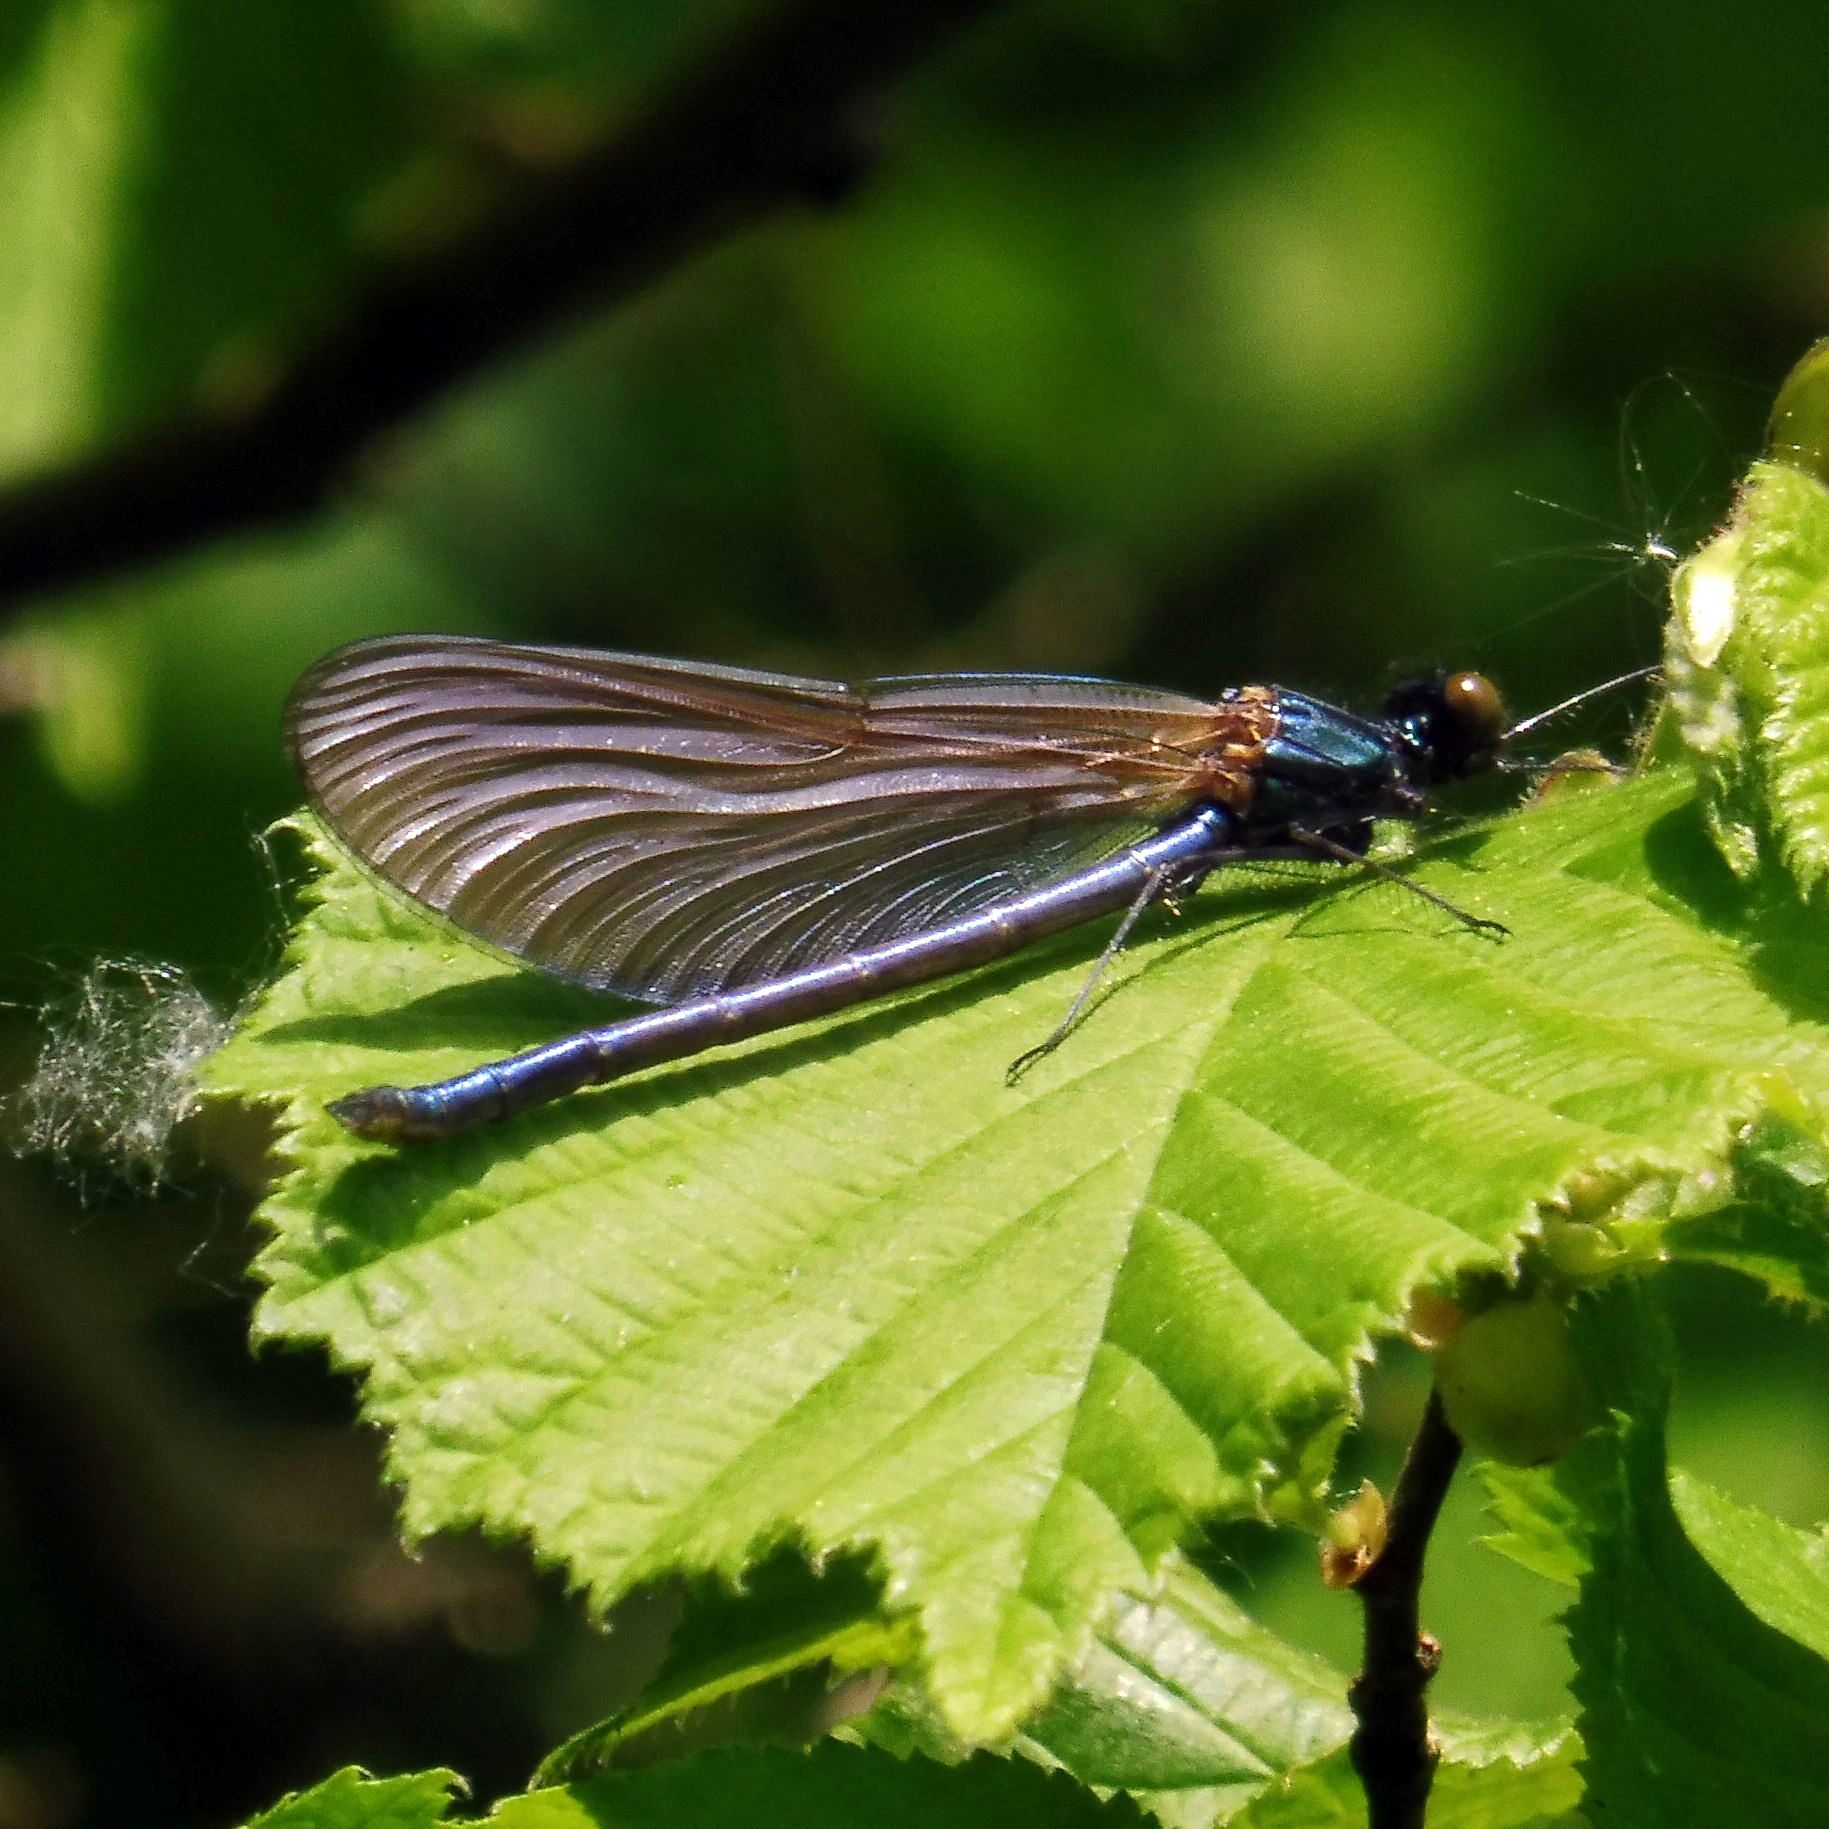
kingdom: Animalia
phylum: Arthropoda
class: Insecta
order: Odonata
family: Calopterygidae
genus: Calopteryx
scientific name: Calopteryx virgo
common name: Beautiful demoiselle
